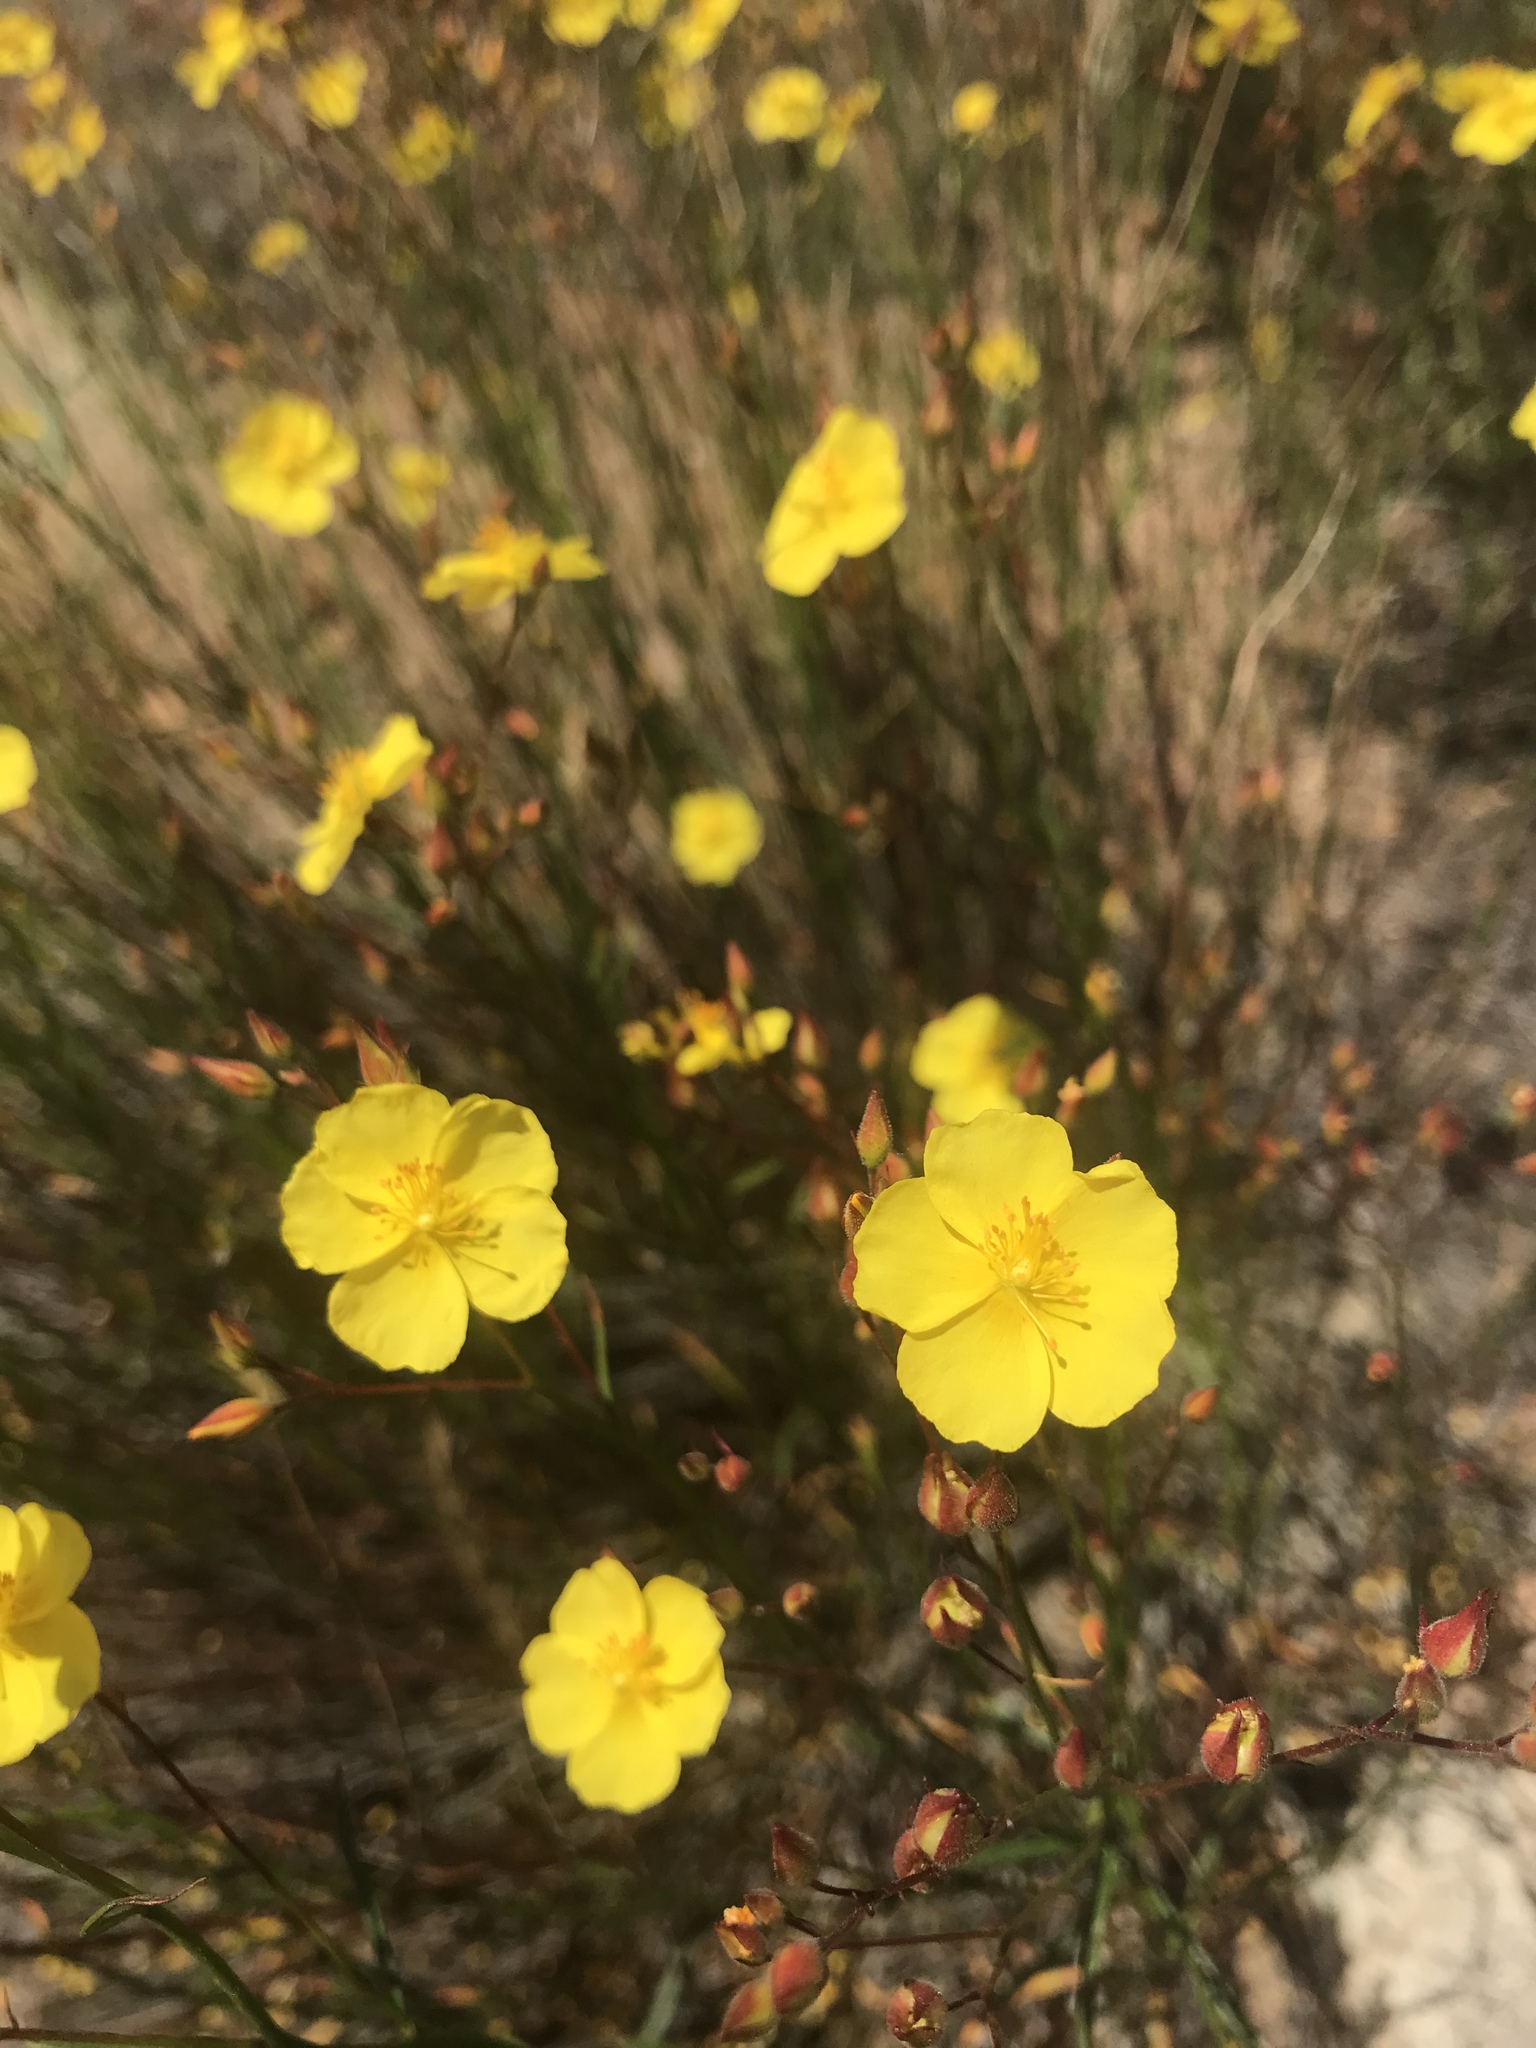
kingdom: Plantae
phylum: Tracheophyta
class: Magnoliopsida
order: Malvales
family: Cistaceae
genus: Crocanthemum
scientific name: Crocanthemum scoparium
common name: Broom-rose
